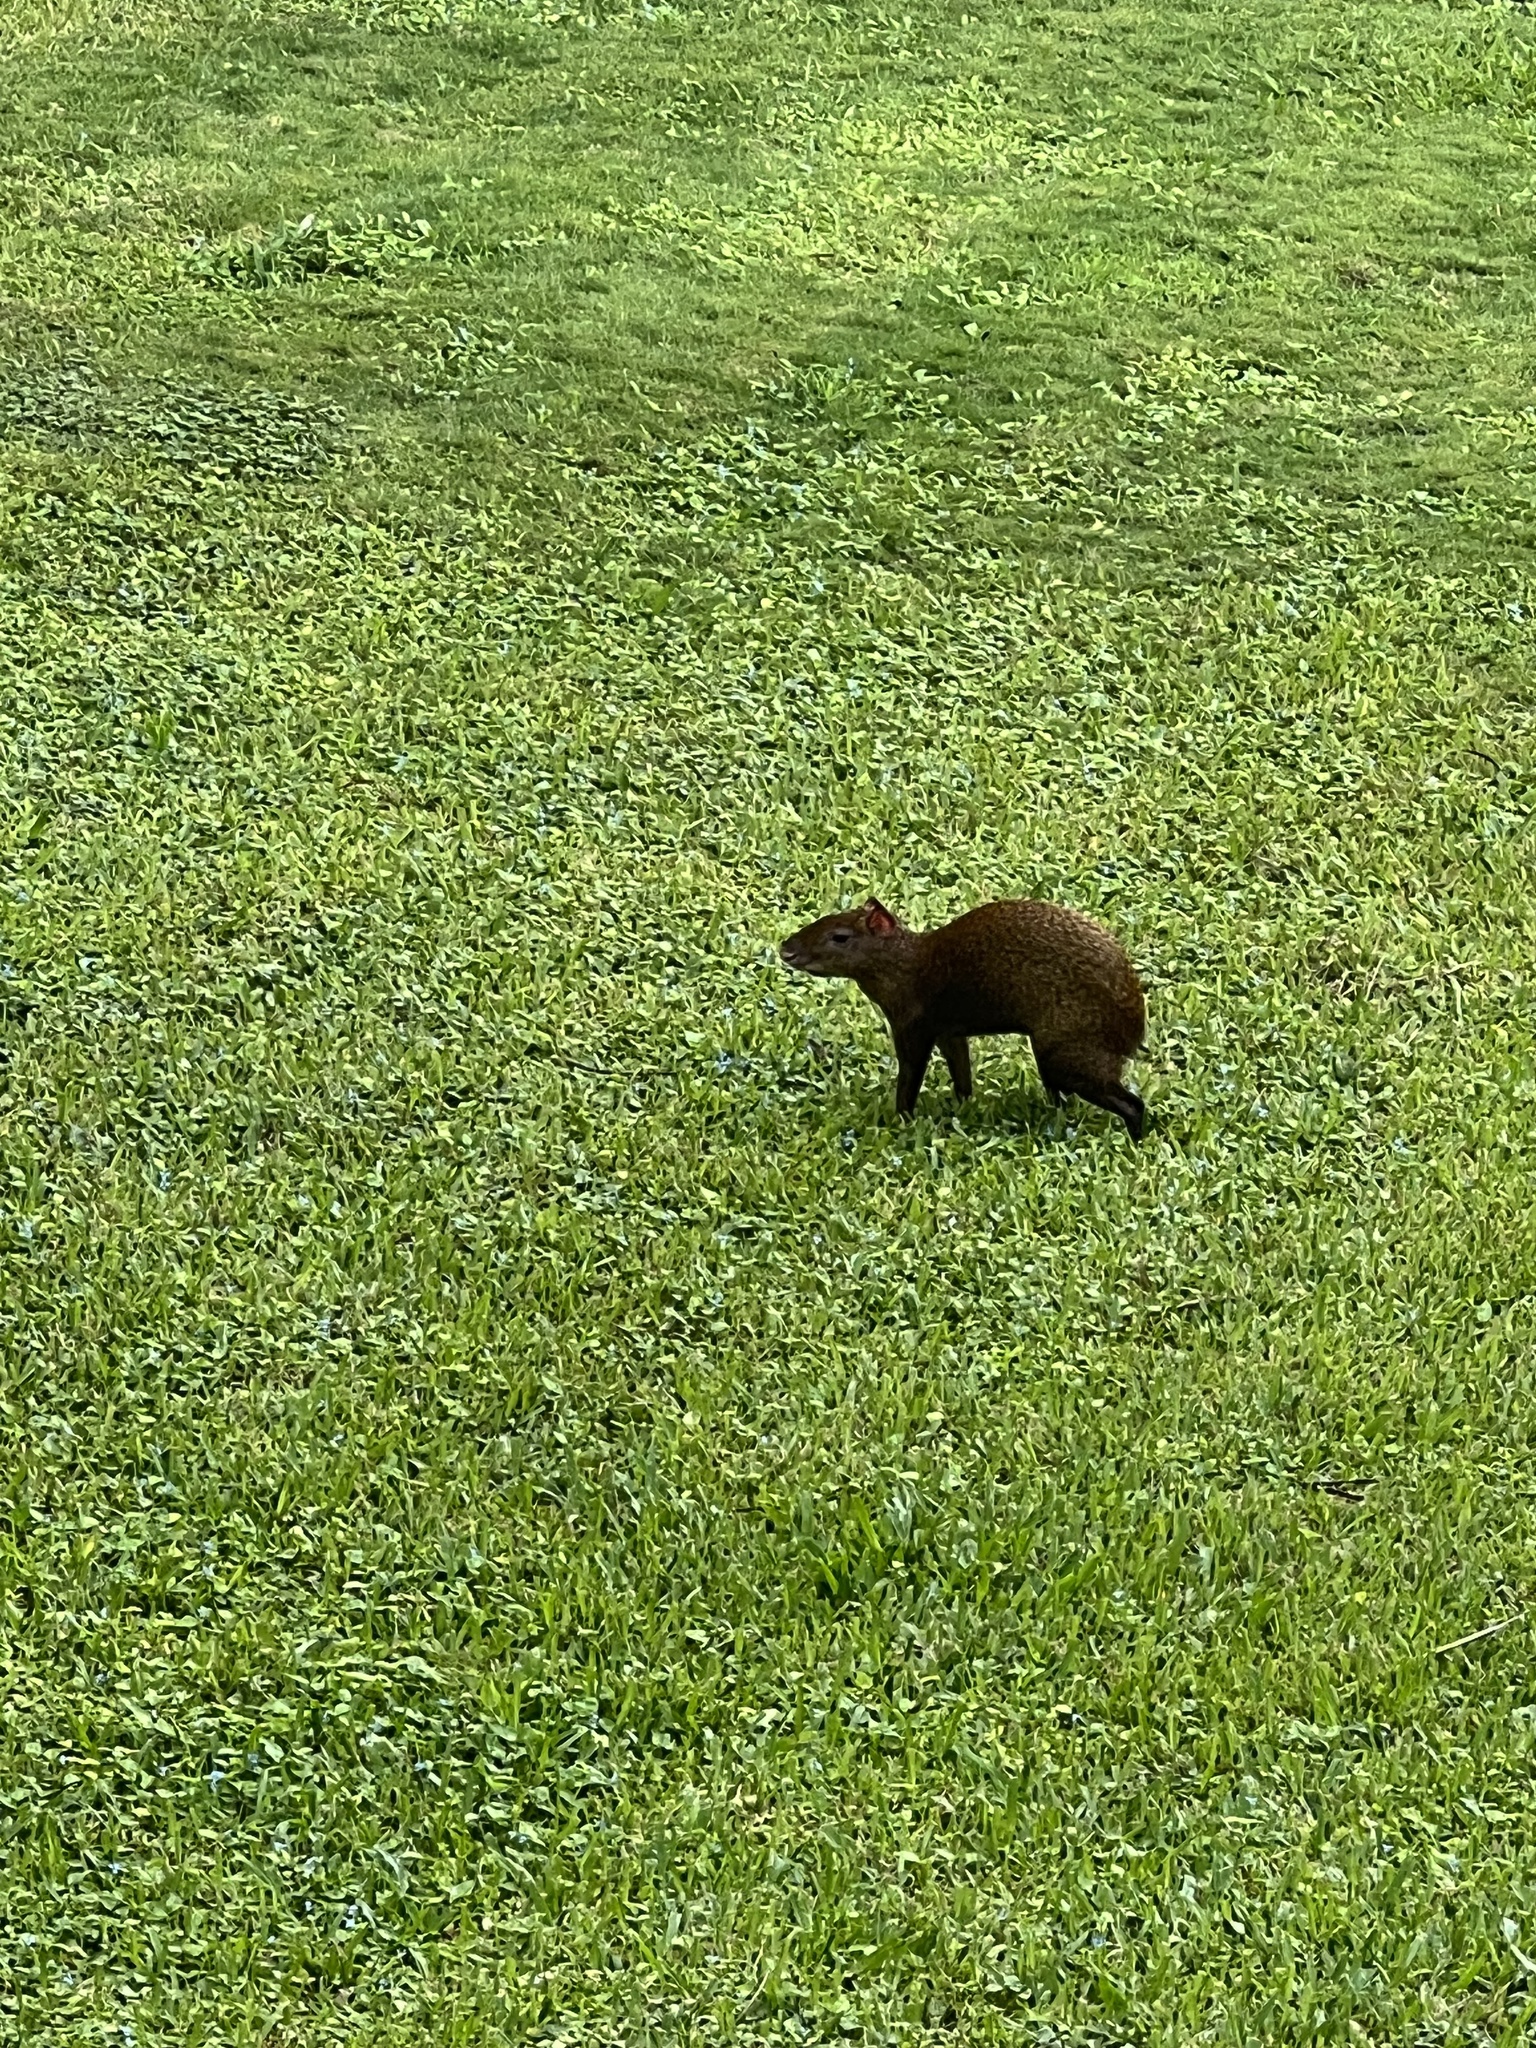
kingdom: Animalia
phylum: Chordata
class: Mammalia
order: Rodentia
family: Dasyproctidae
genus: Dasyprocta
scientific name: Dasyprocta punctata
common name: Central american agouti
